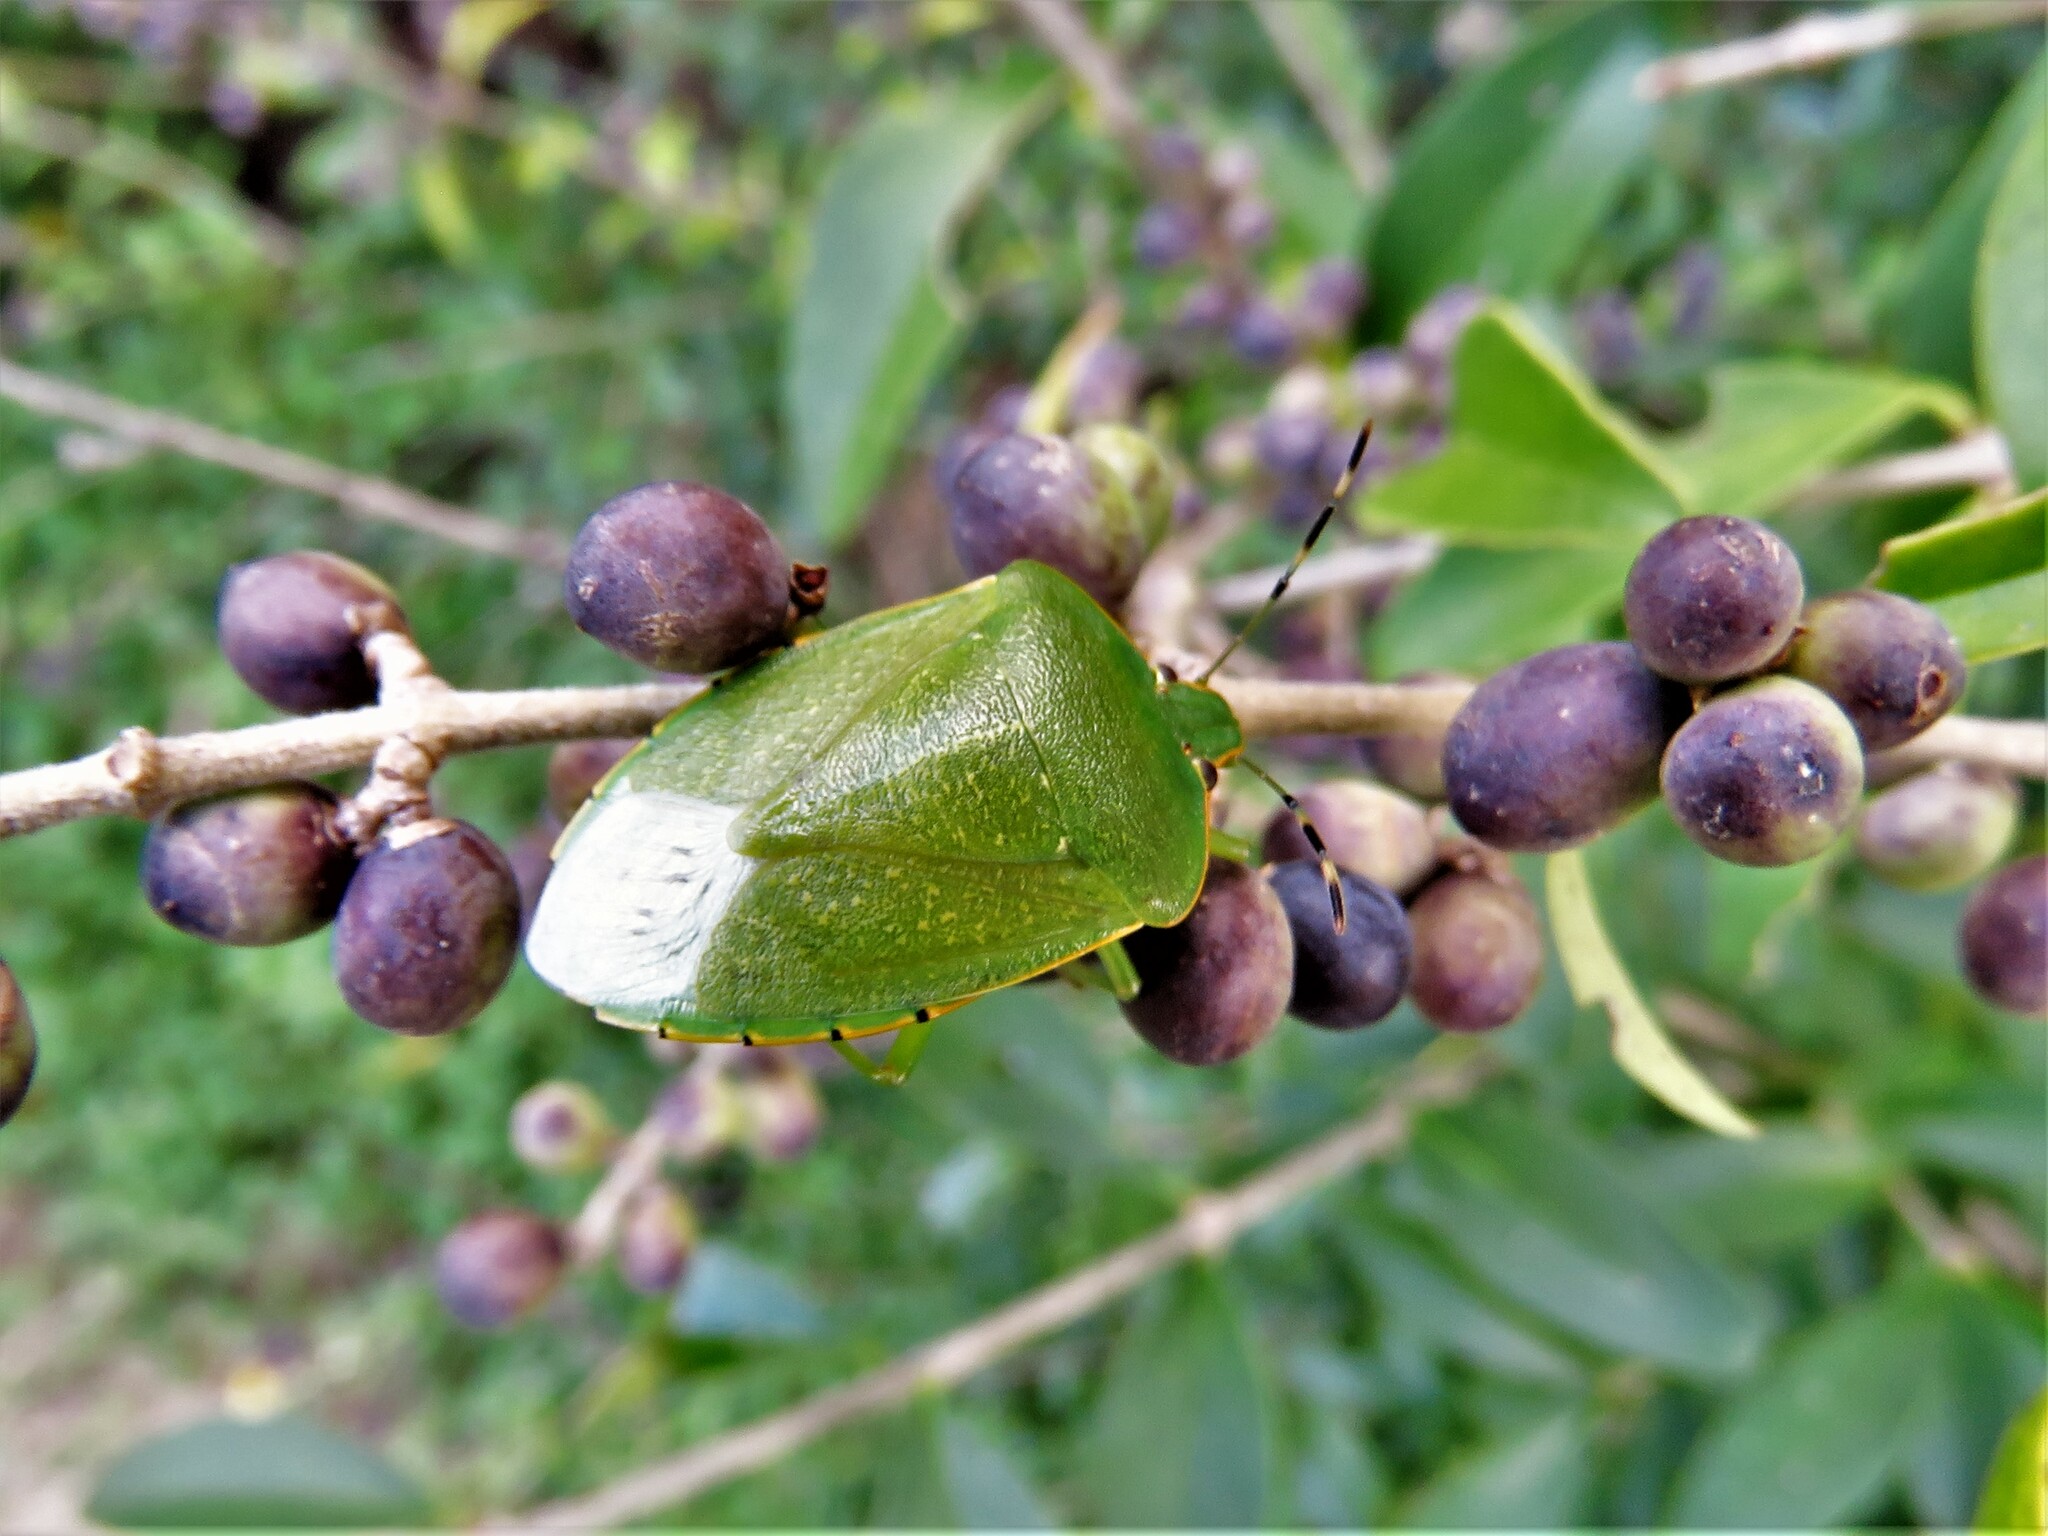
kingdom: Animalia
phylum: Arthropoda
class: Insecta
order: Hemiptera
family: Pentatomidae
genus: Chinavia
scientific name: Chinavia hilaris
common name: Green stink bug
